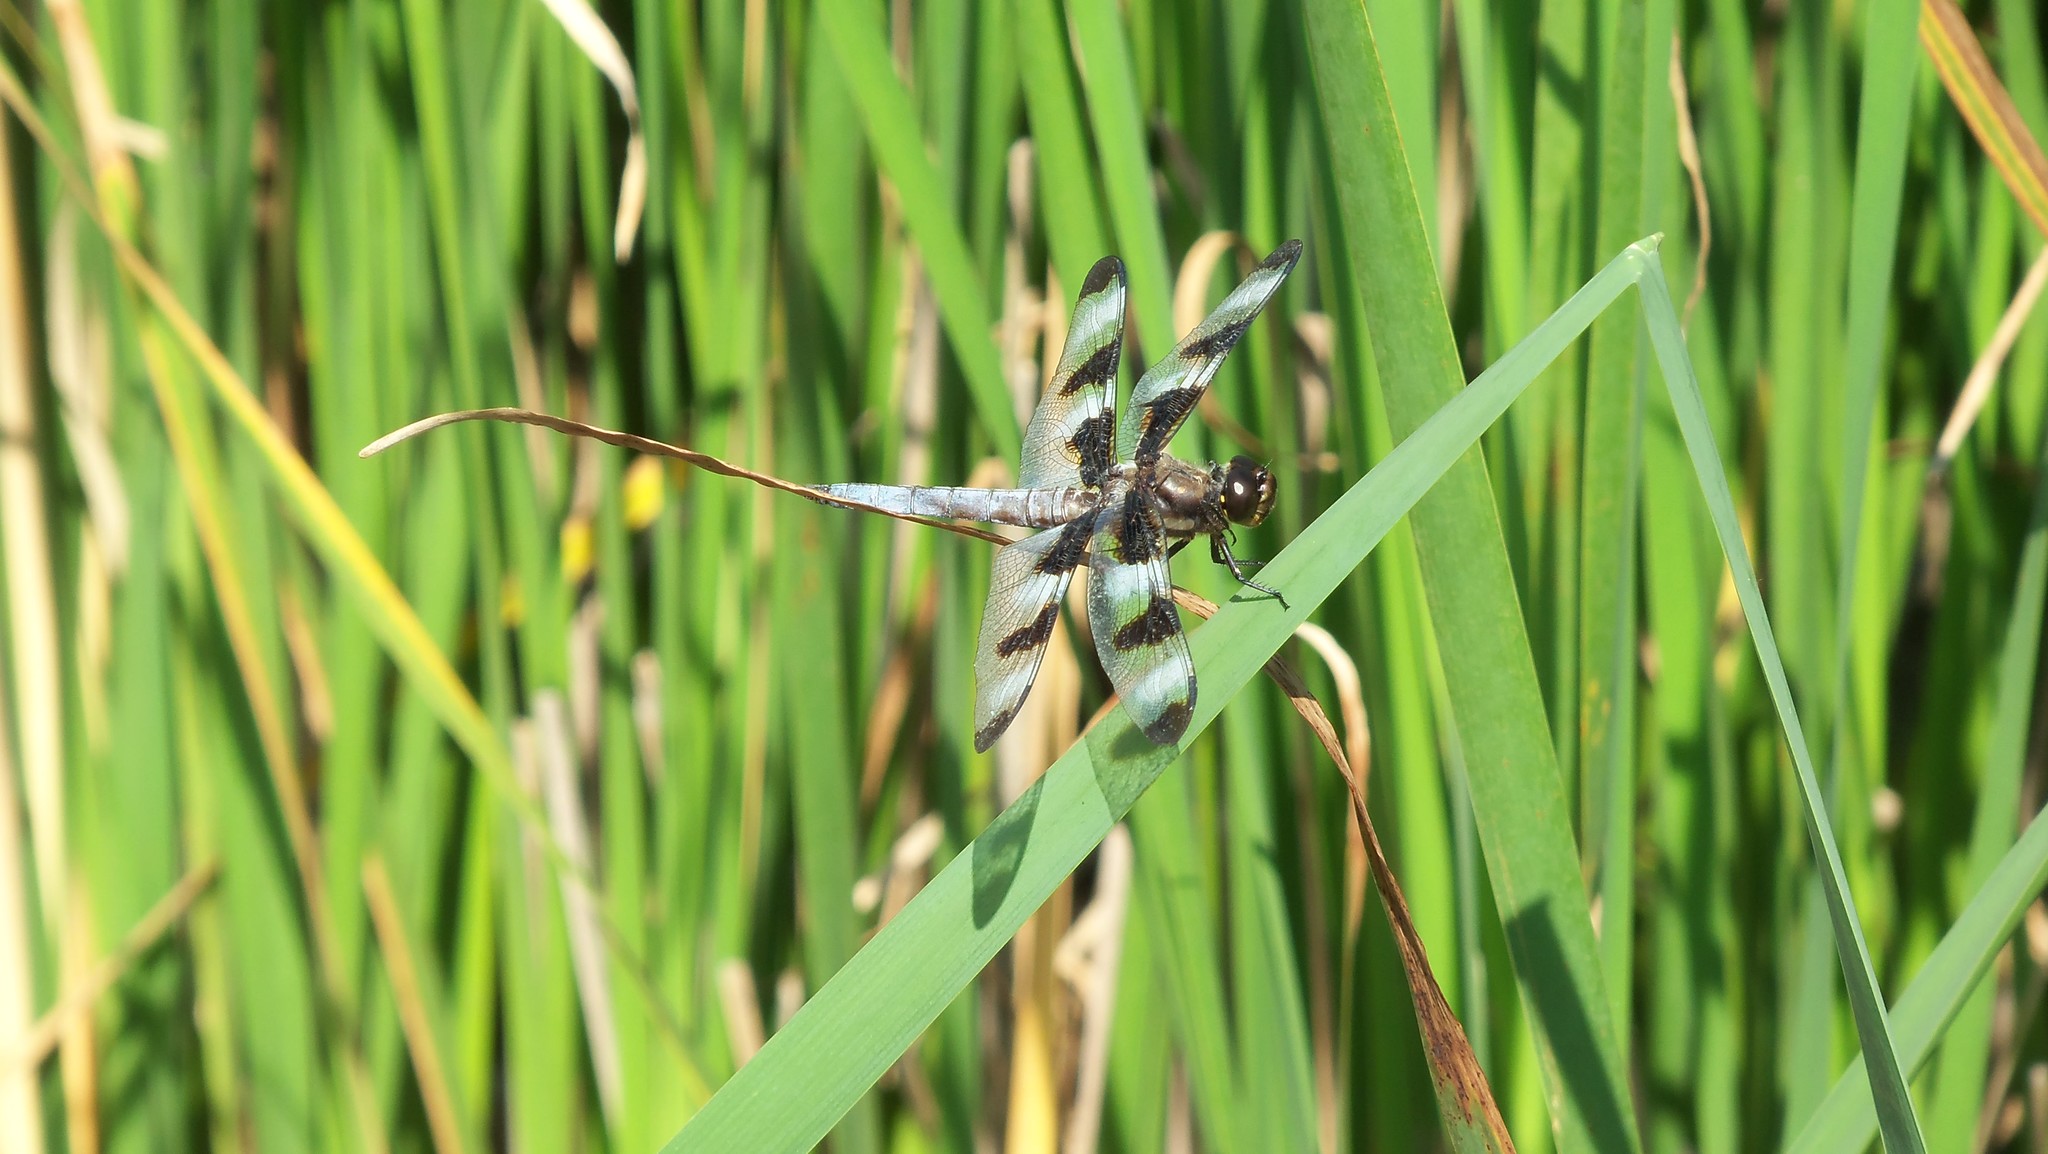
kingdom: Animalia
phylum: Arthropoda
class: Insecta
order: Odonata
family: Libellulidae
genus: Libellula
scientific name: Libellula pulchella
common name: Twelve-spotted skimmer
